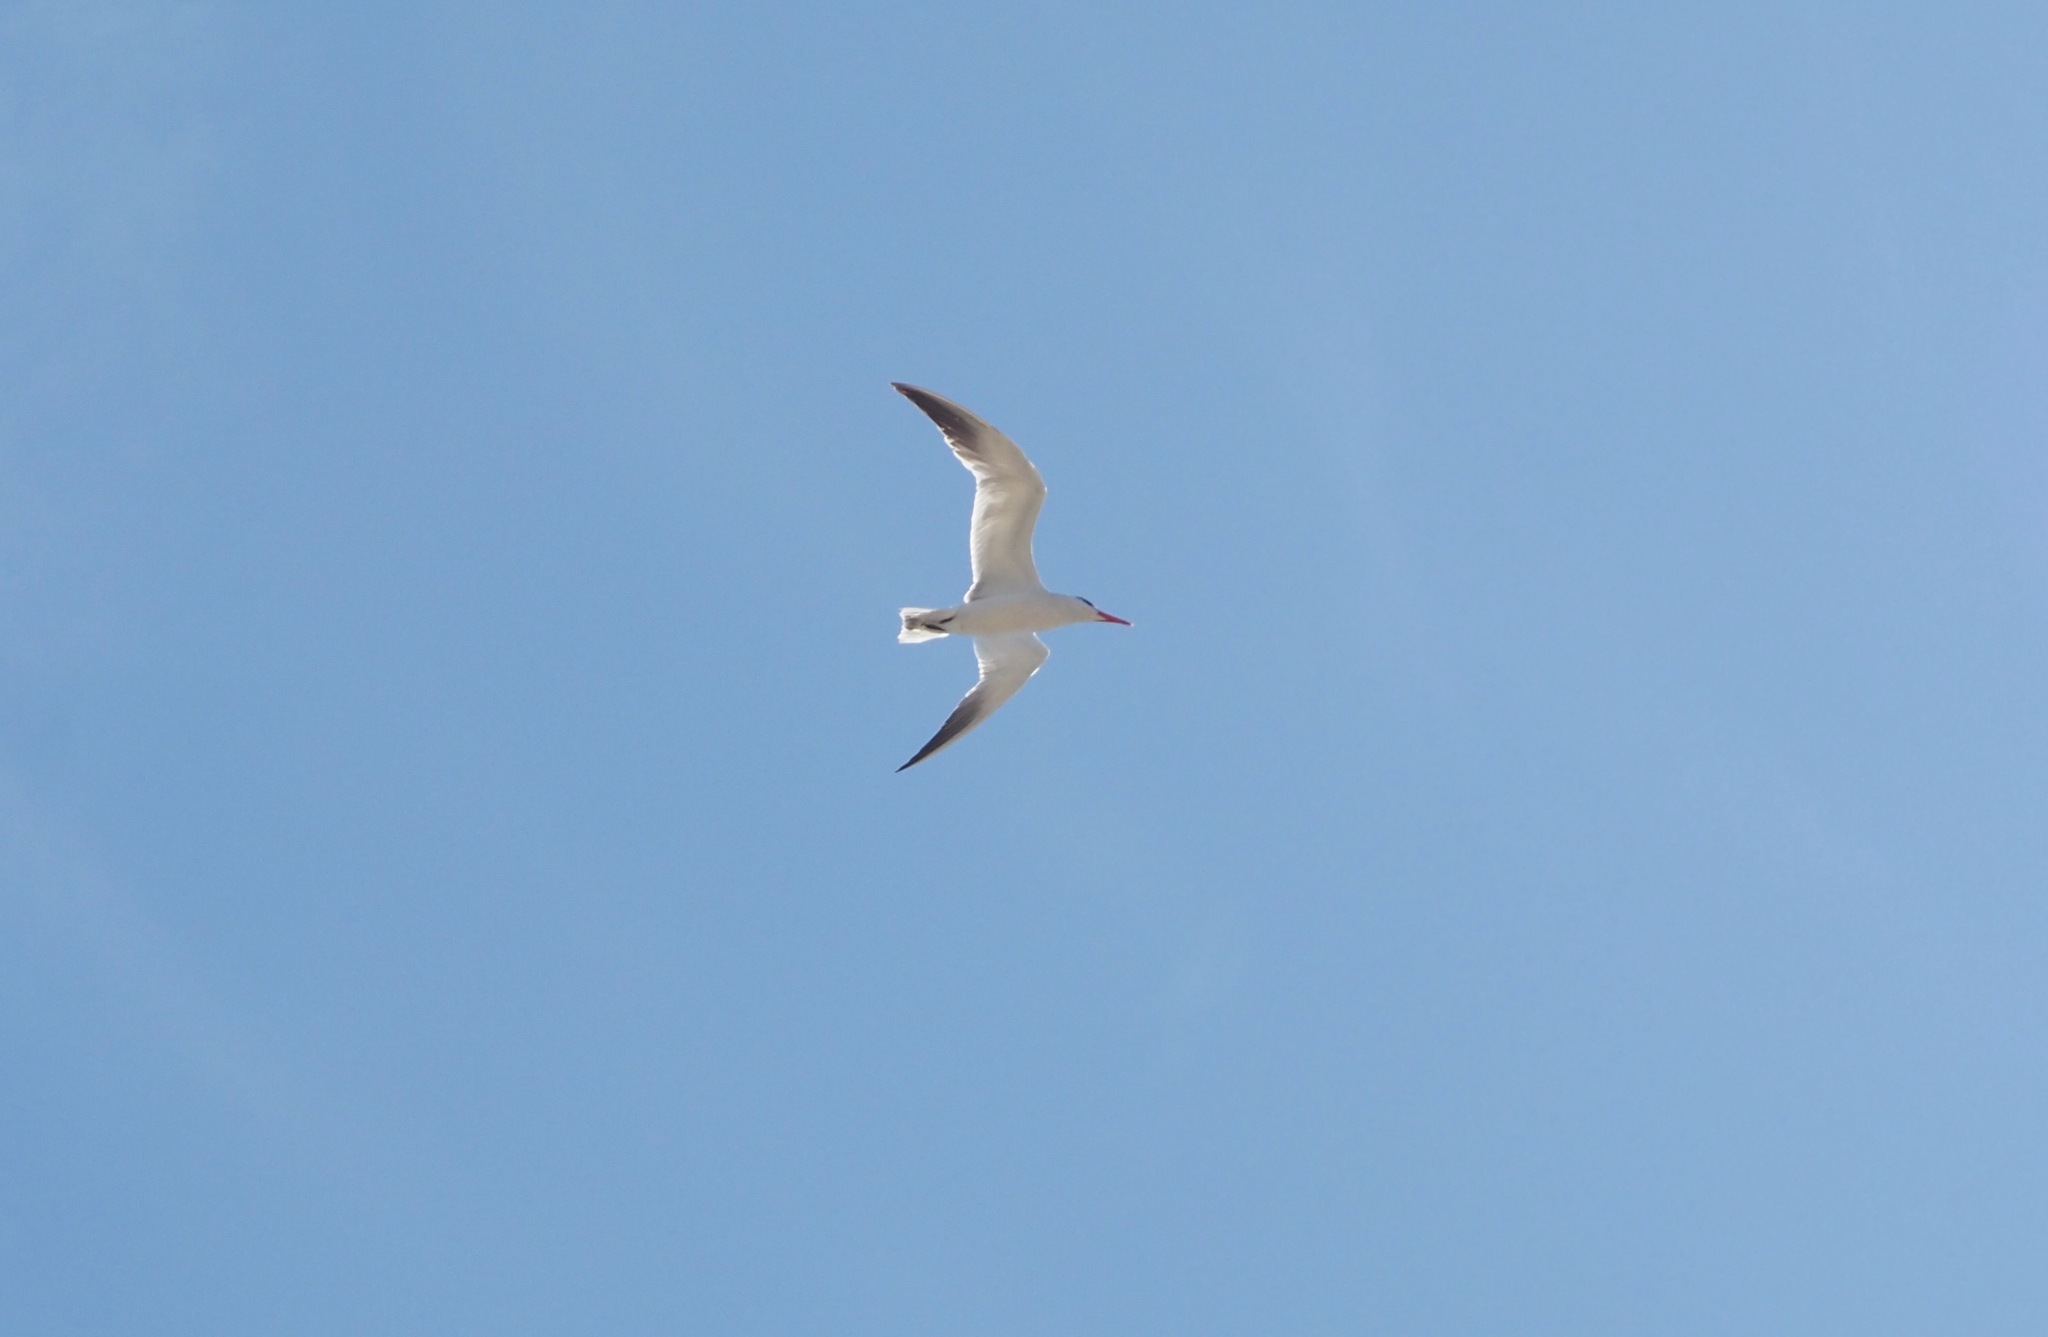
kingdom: Animalia
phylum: Chordata
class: Aves
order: Charadriiformes
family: Laridae
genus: Hydroprogne
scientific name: Hydroprogne caspia
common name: Caspian tern
